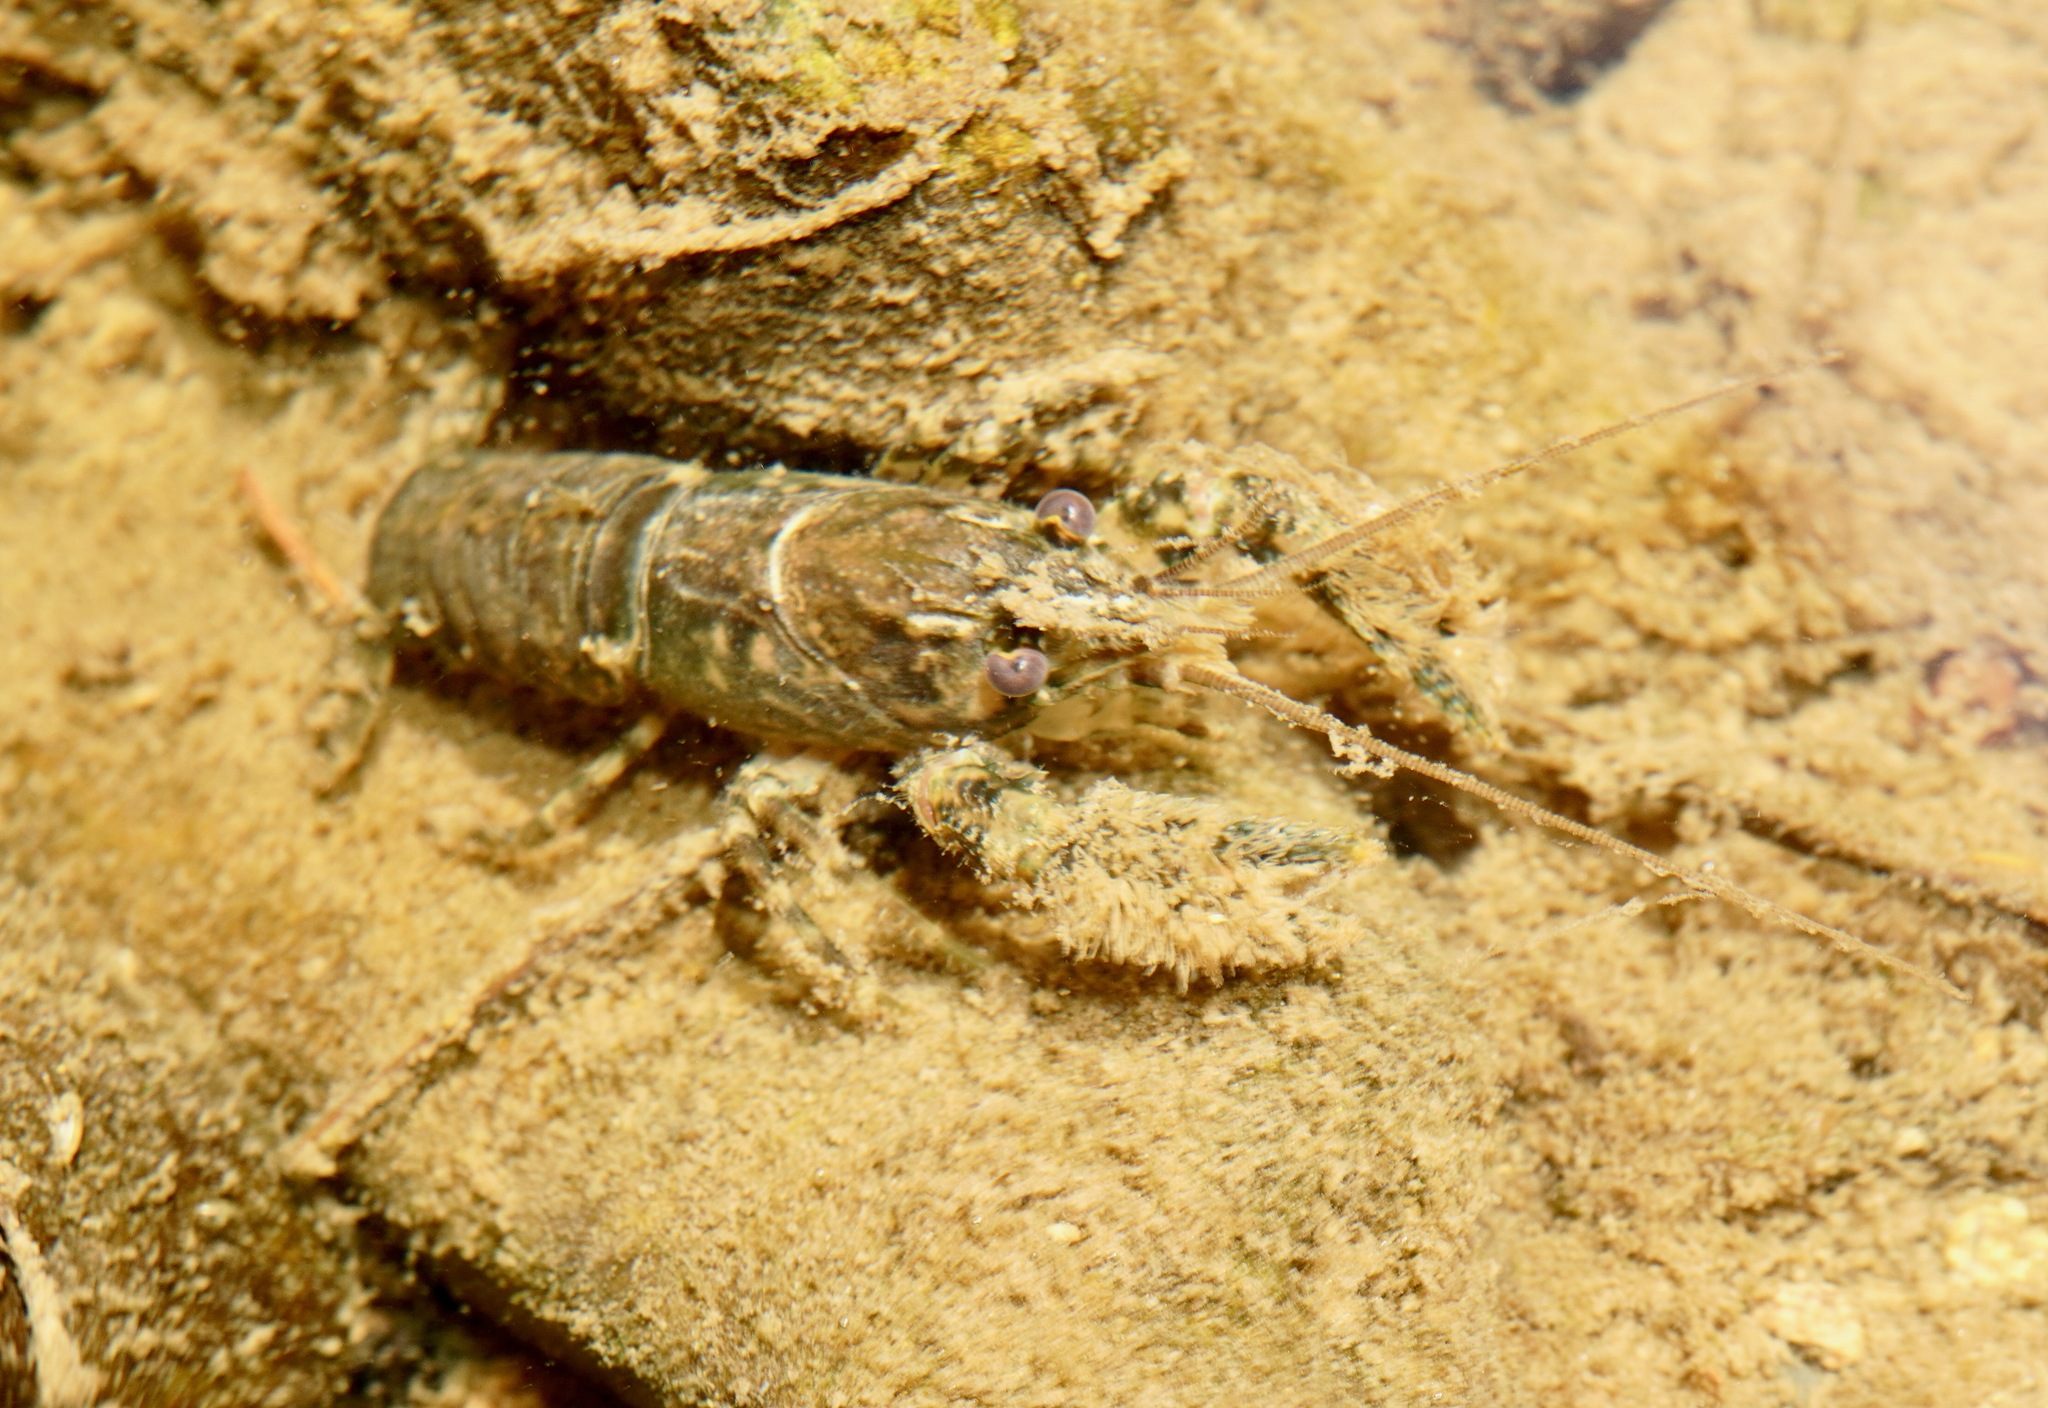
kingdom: Animalia
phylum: Arthropoda
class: Malacostraca
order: Decapoda
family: Parastacidae
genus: Paranephrops
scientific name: Paranephrops zealandicus
